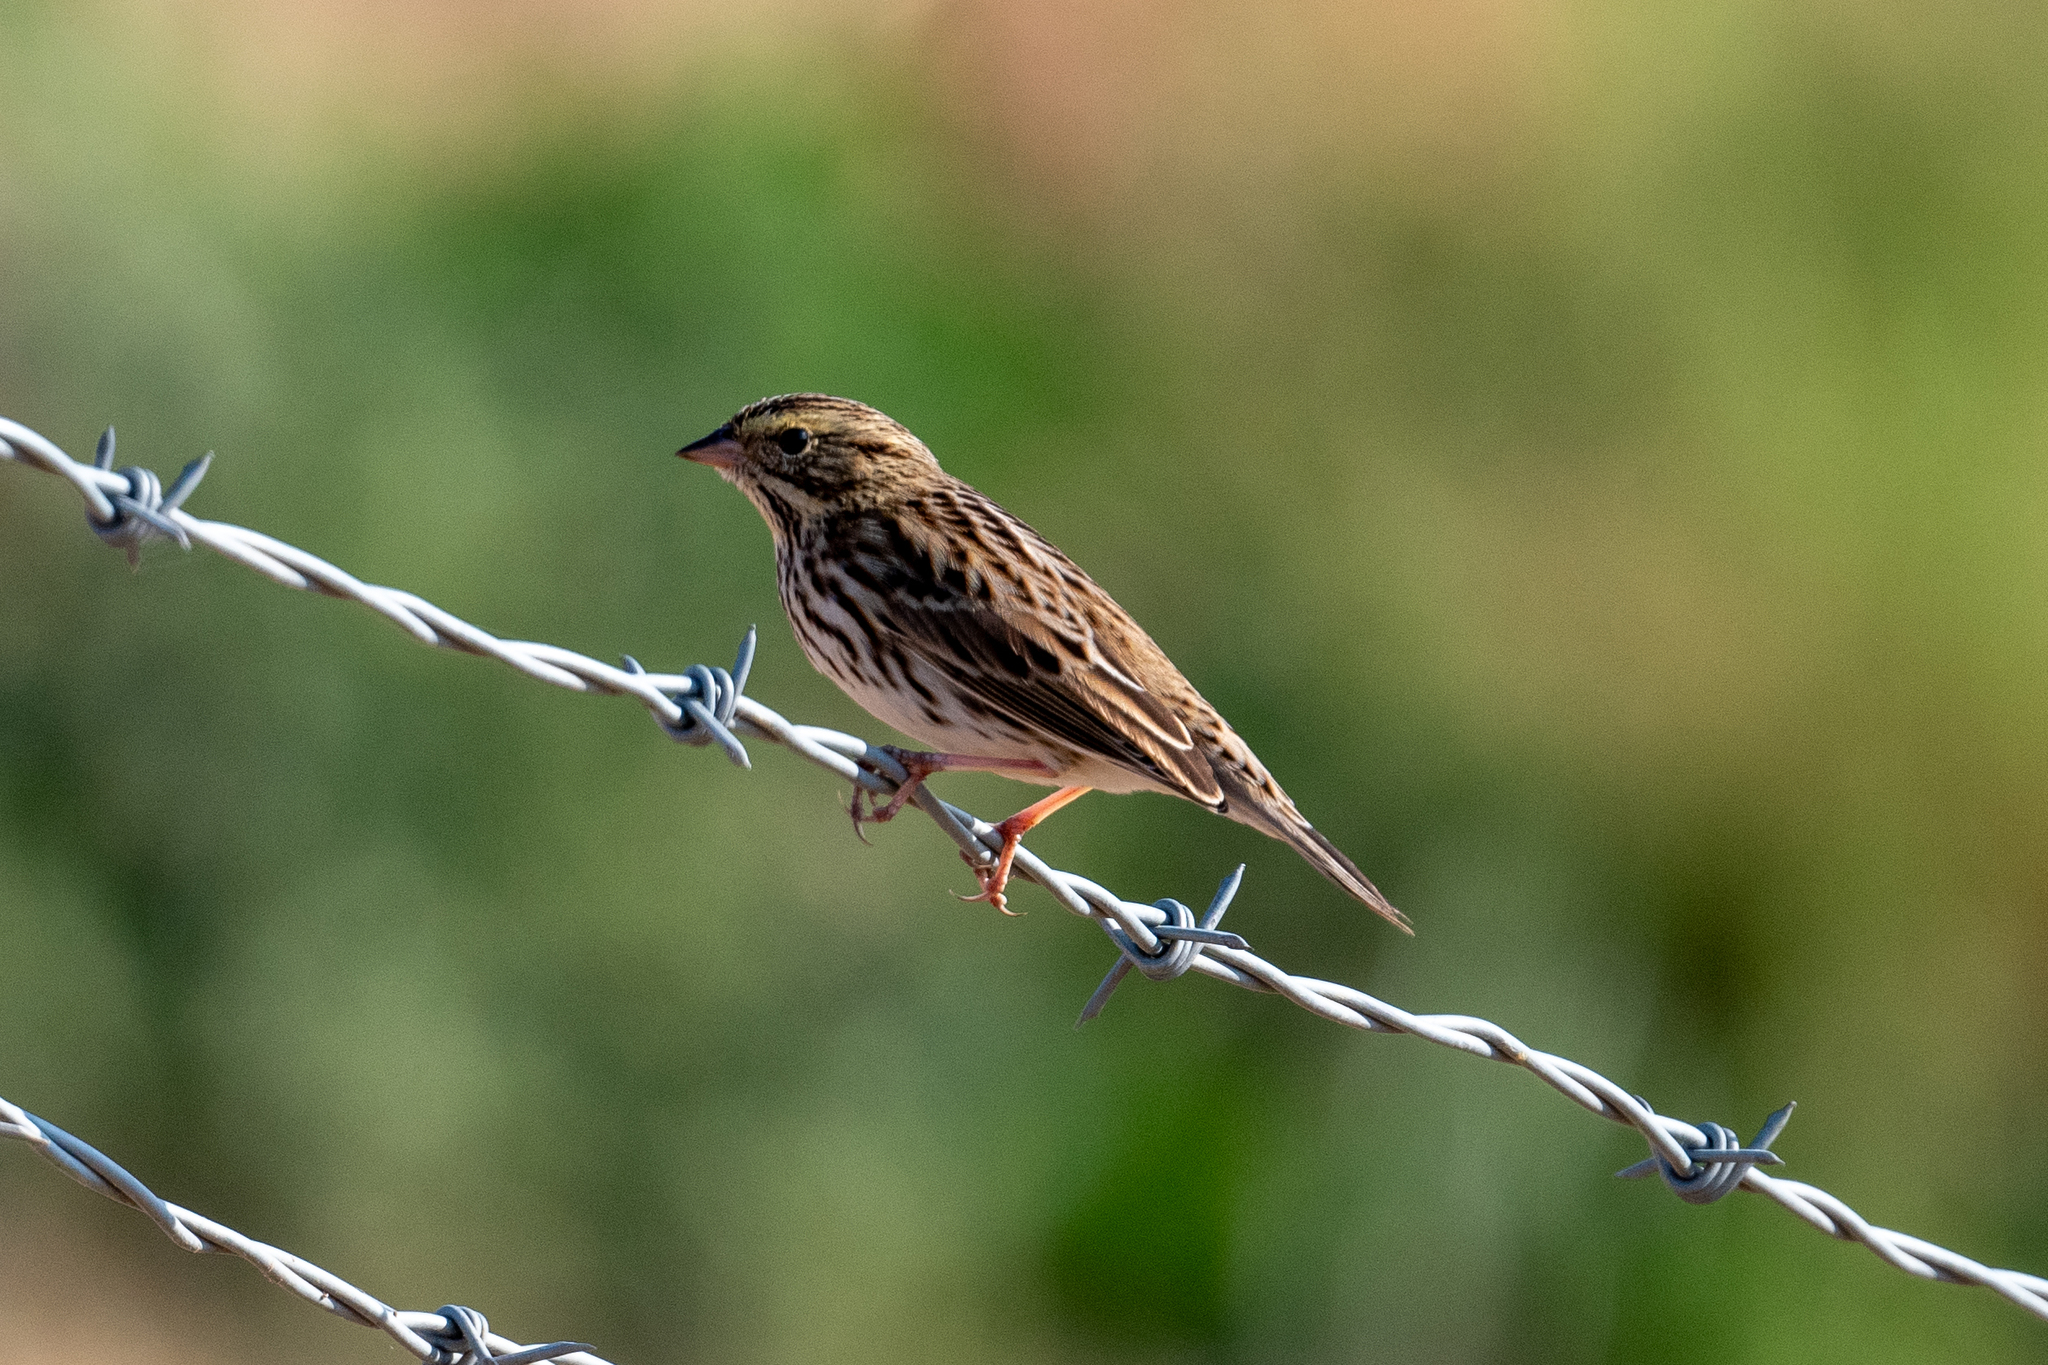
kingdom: Animalia
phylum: Chordata
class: Aves
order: Passeriformes
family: Passerellidae
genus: Passerculus
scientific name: Passerculus sandwichensis
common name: Savannah sparrow
